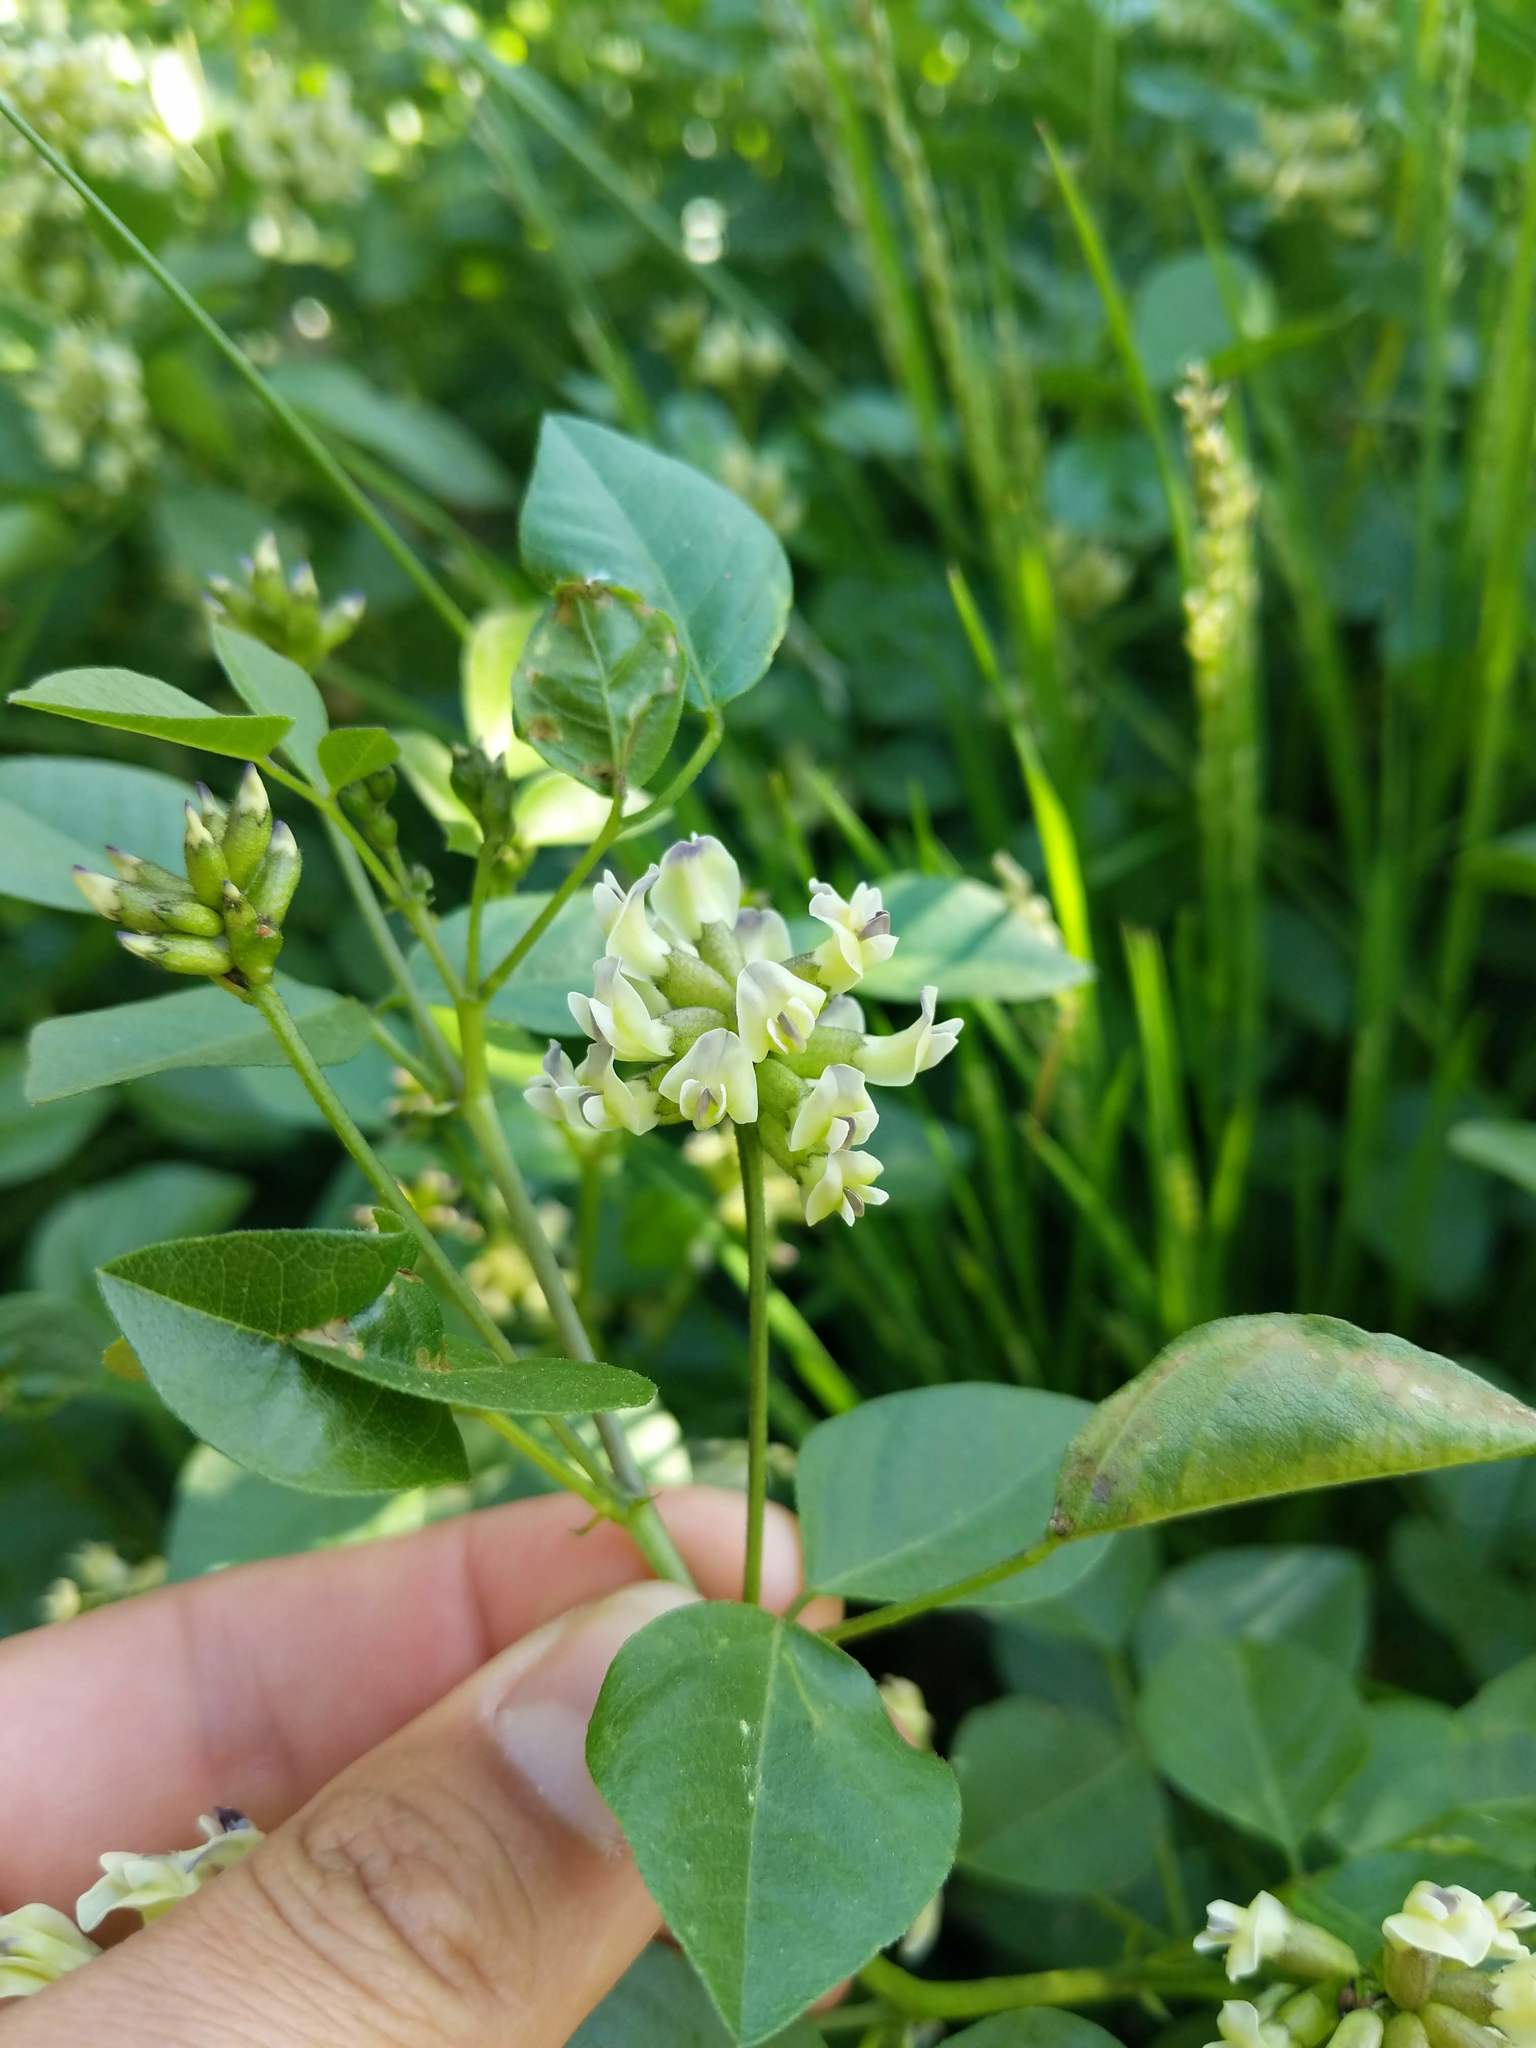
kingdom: Plantae
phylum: Tracheophyta
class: Magnoliopsida
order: Fabales
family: Fabaceae
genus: Rupertia
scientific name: Rupertia physodes
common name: California-tea
